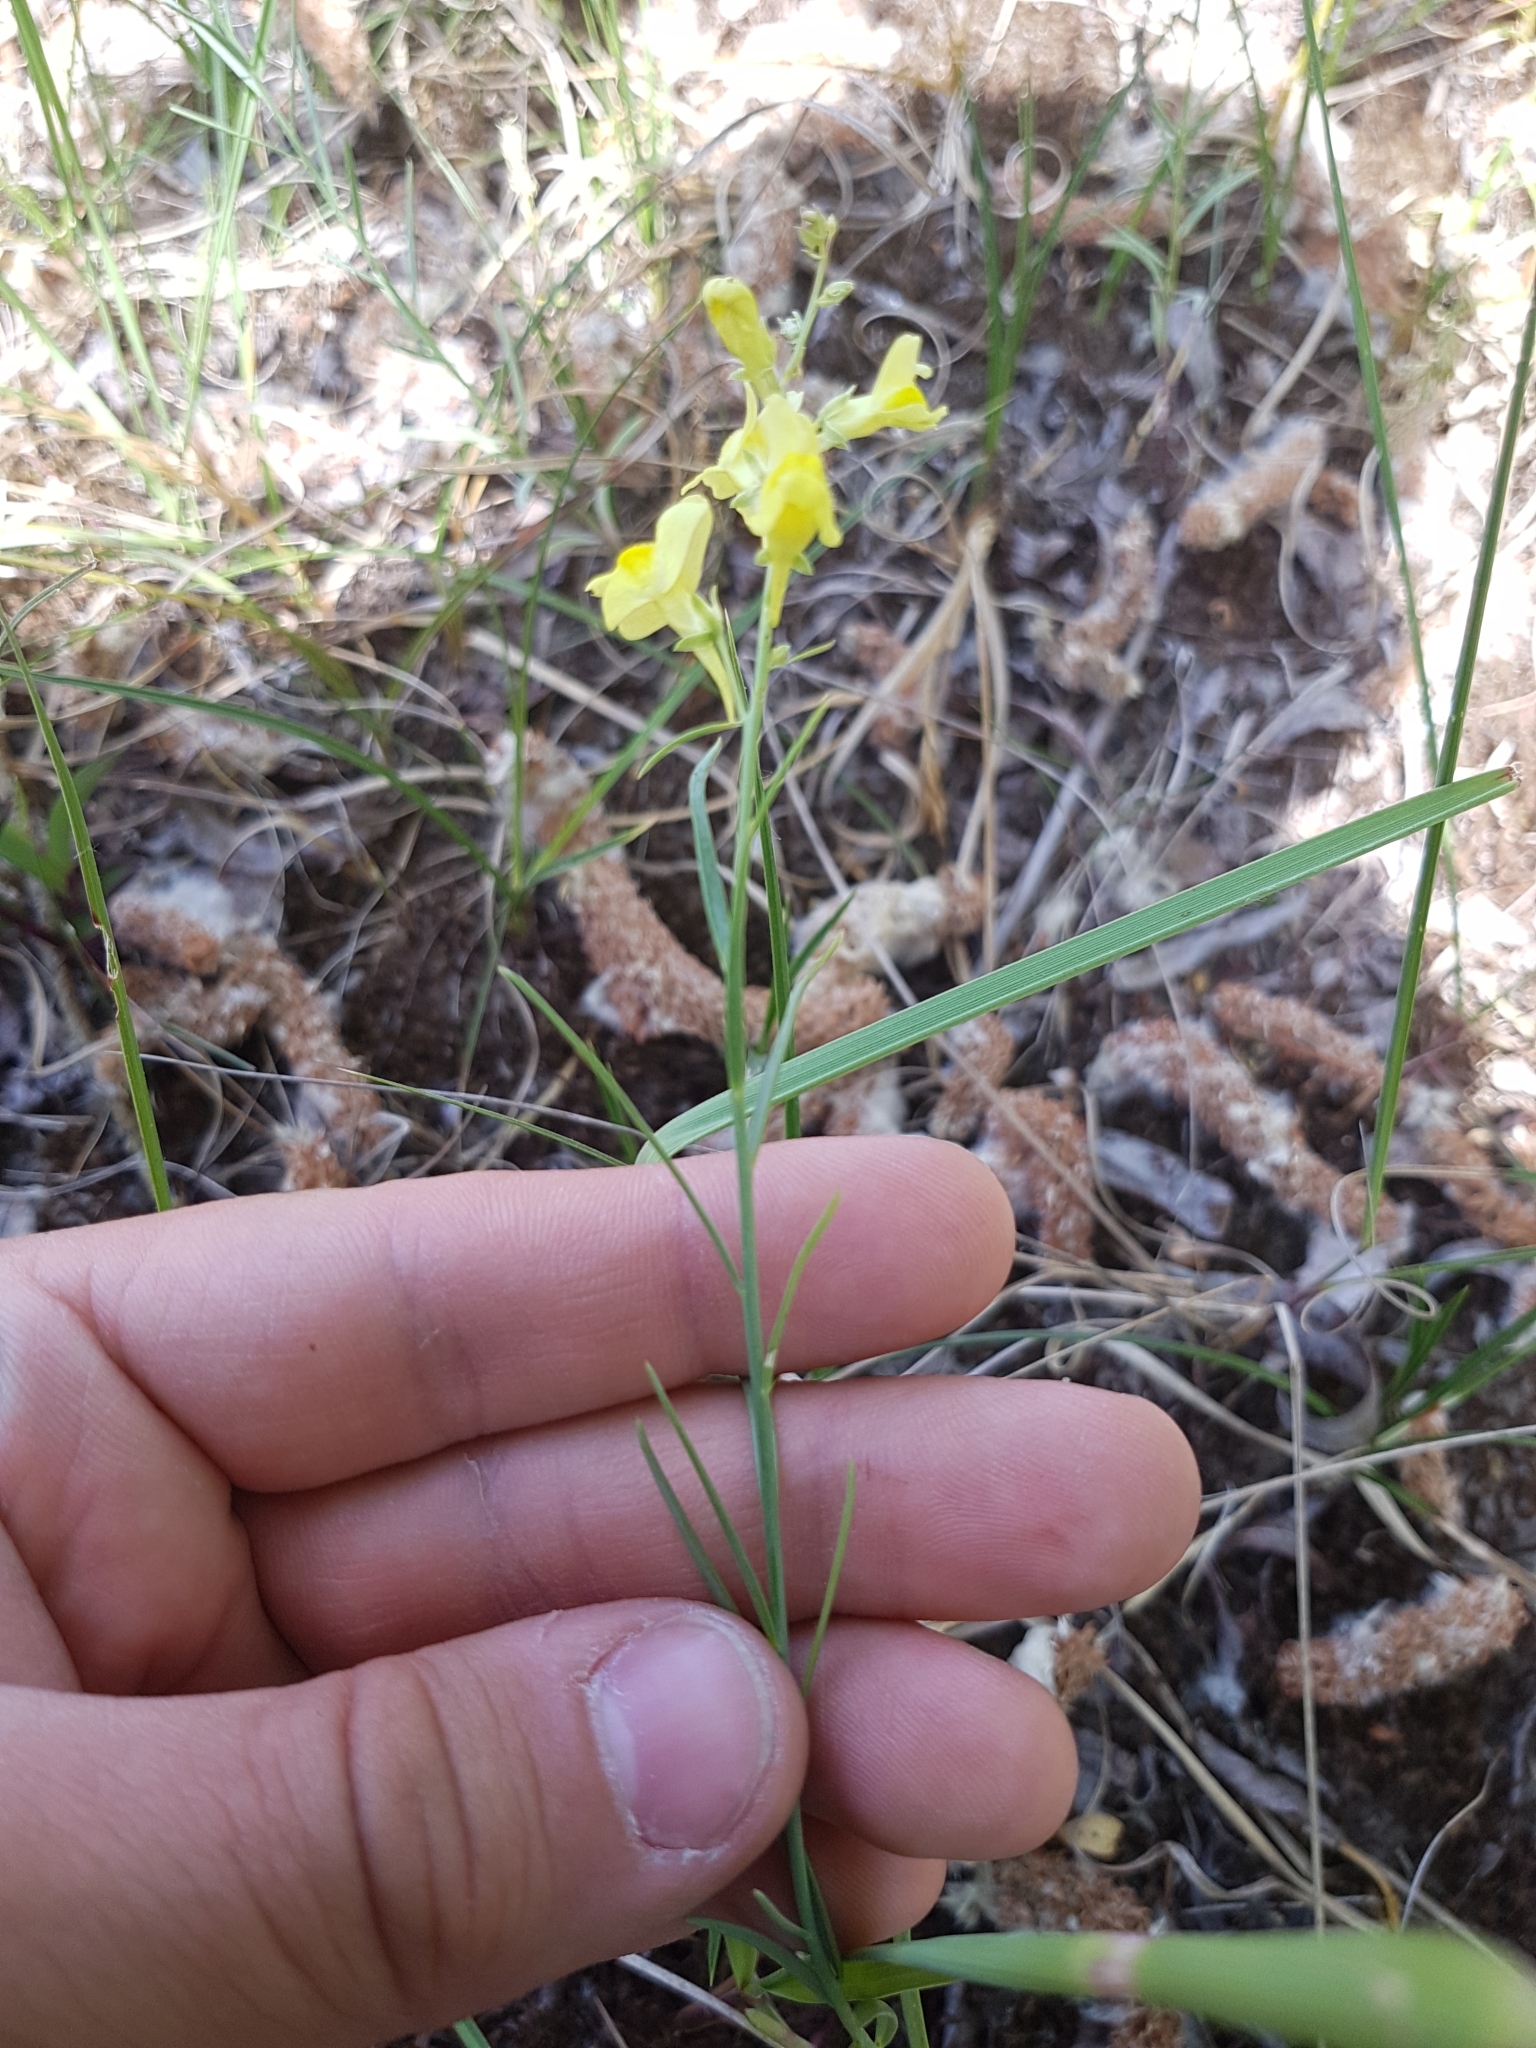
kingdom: Plantae
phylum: Tracheophyta
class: Magnoliopsida
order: Lamiales
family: Plantaginaceae
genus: Linaria
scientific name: Linaria loeselii
